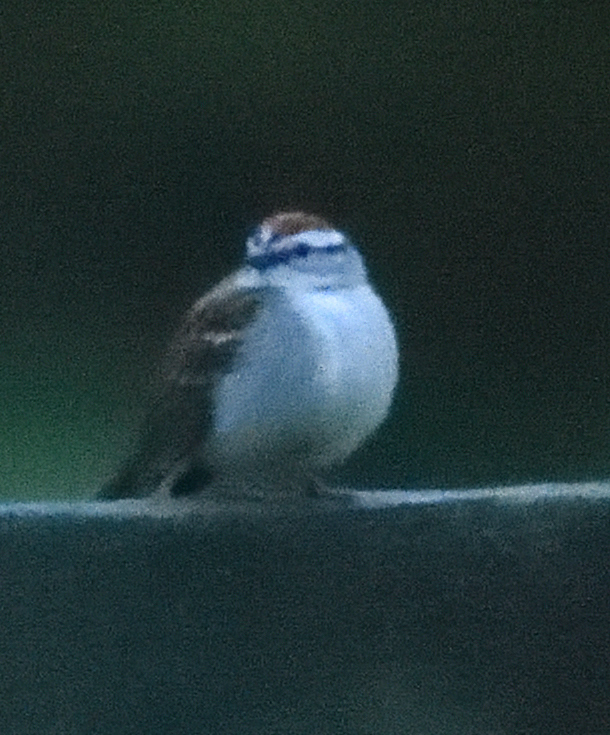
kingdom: Animalia
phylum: Chordata
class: Aves
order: Passeriformes
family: Passerellidae
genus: Spizella
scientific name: Spizella passerina
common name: Chipping sparrow
